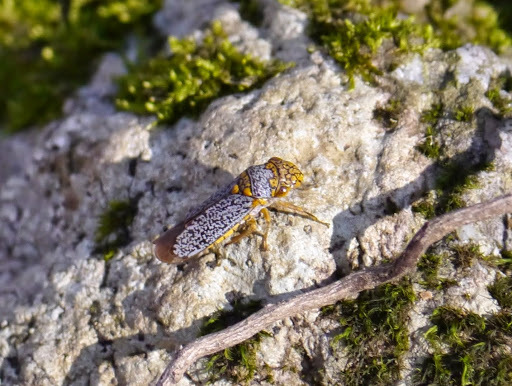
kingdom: Animalia
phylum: Arthropoda
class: Insecta
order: Hemiptera
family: Cicadellidae
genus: Oncometopia
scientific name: Oncometopia orbona
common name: Broad-headed sharpshooter
